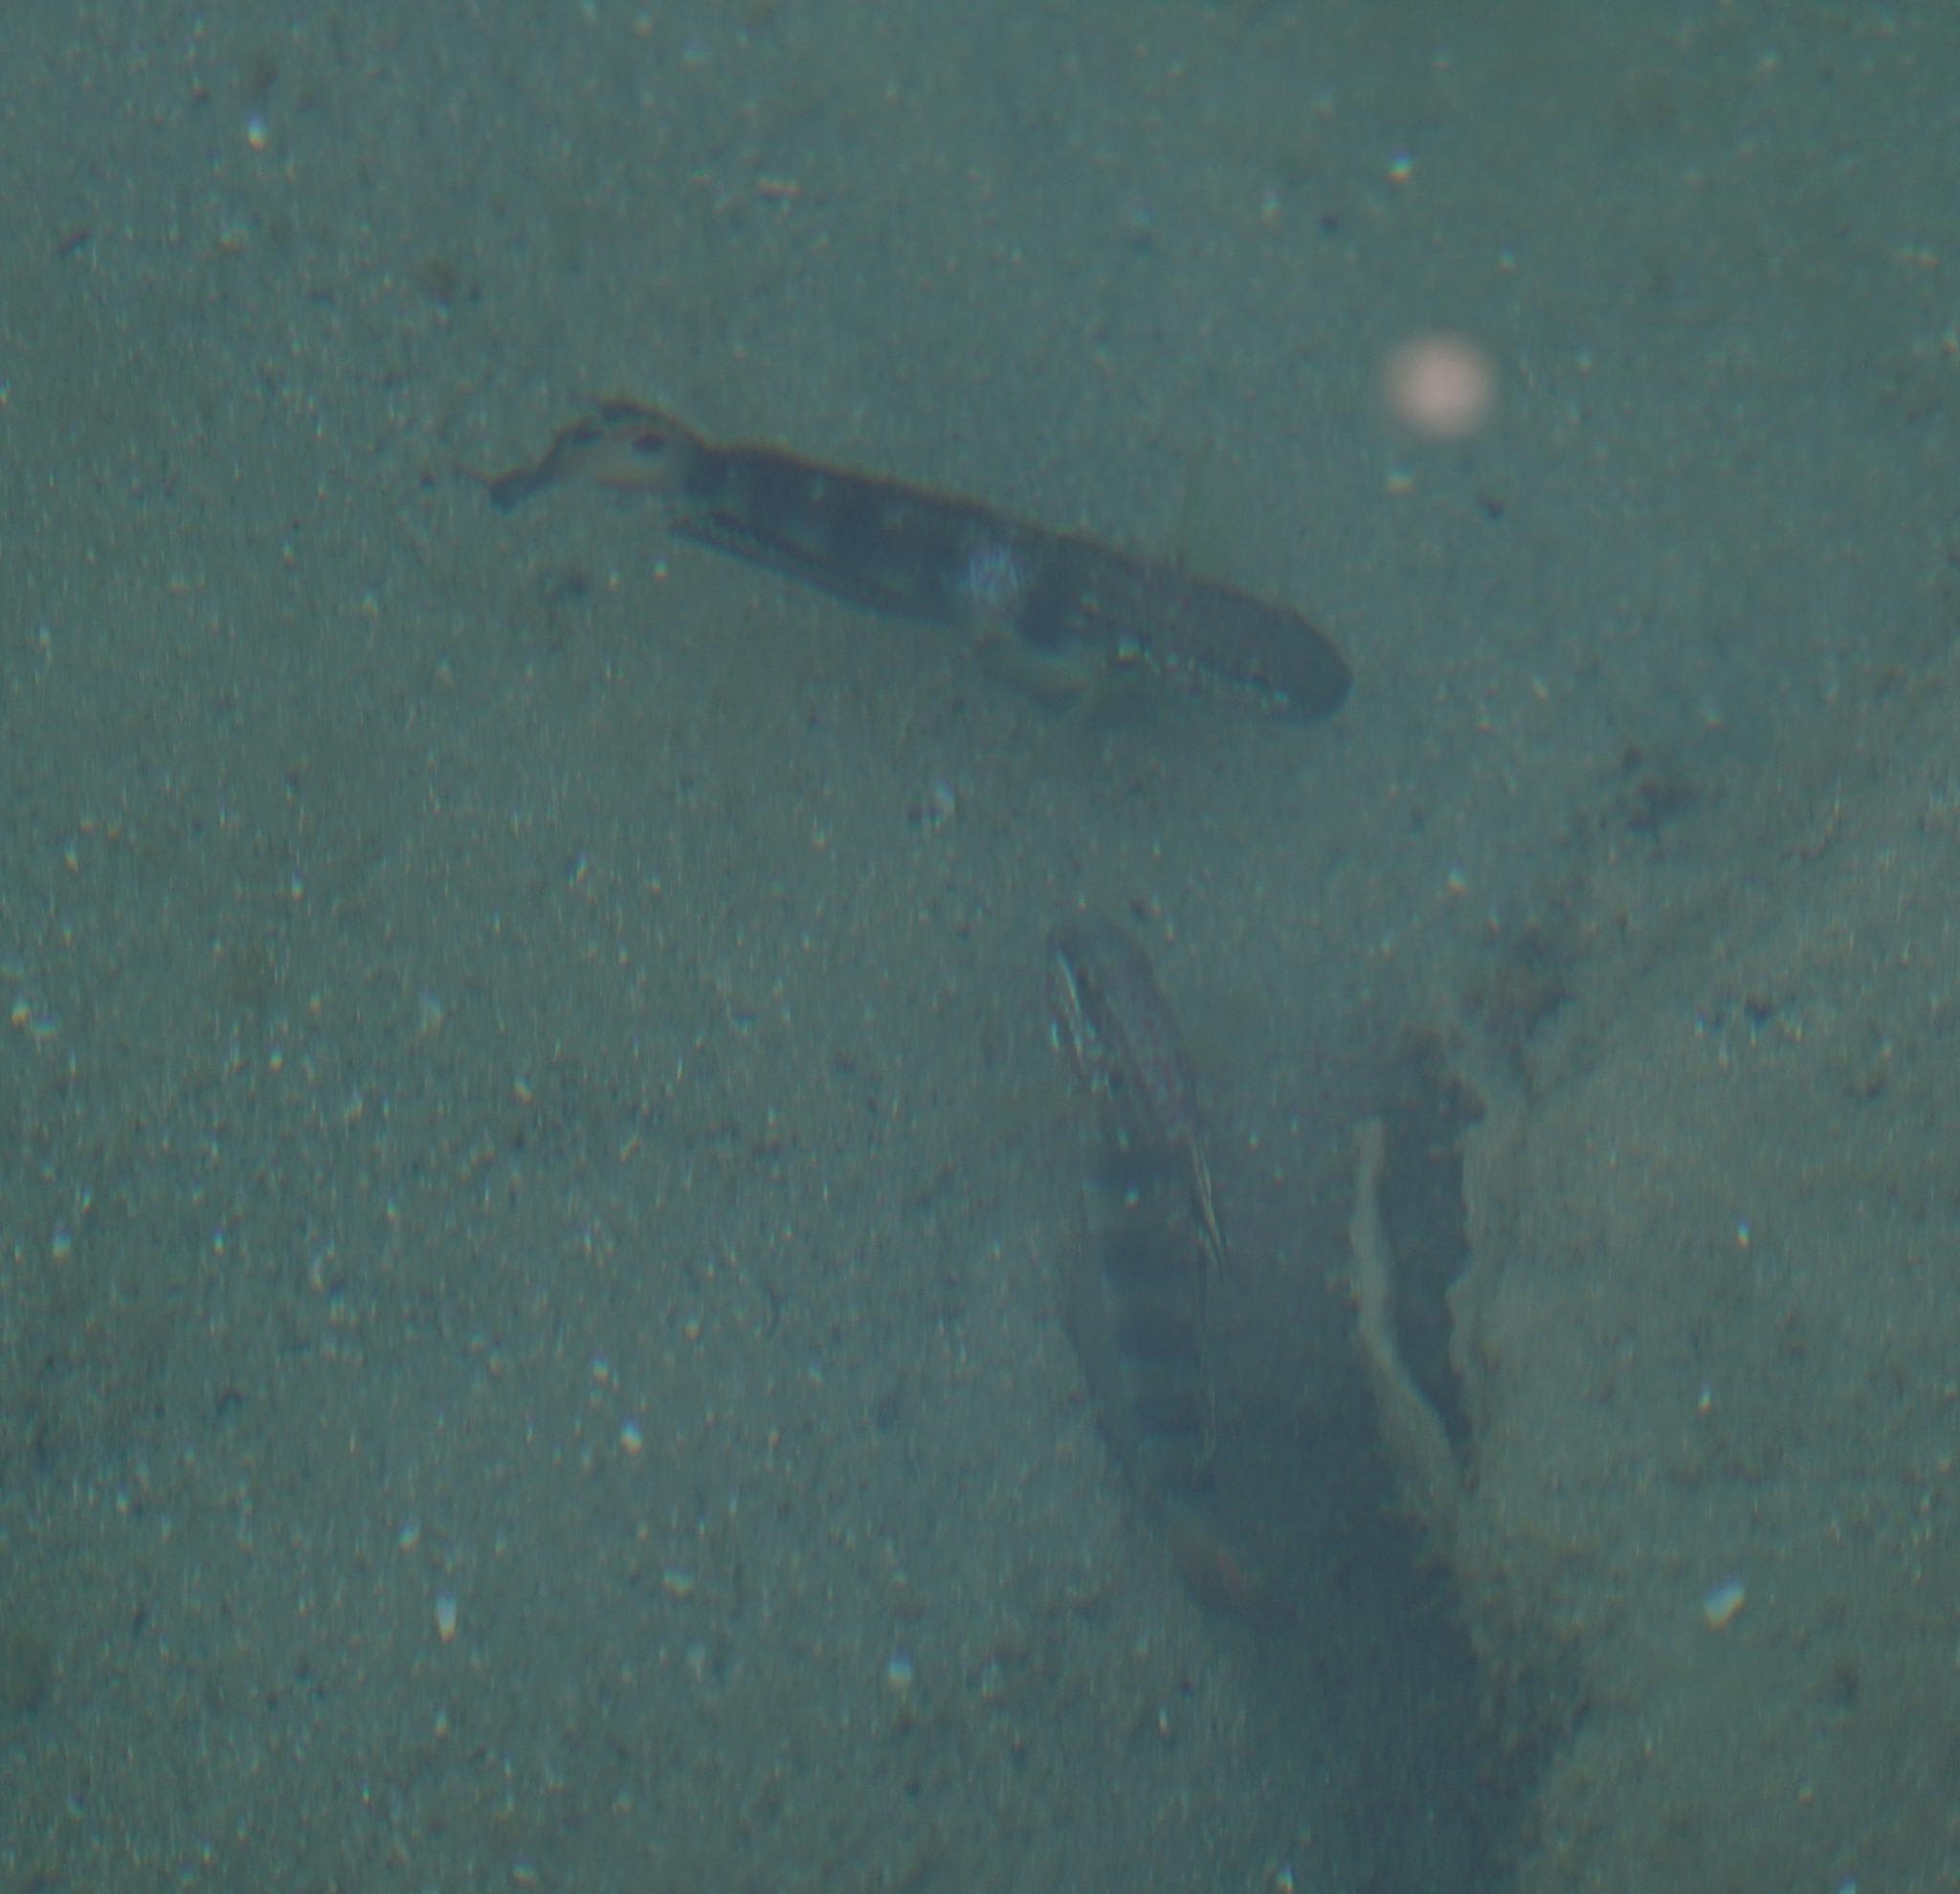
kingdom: Animalia
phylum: Chordata
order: Perciformes
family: Gobiidae
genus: Amblygobius
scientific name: Amblygobius phalaena
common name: Banded goby
